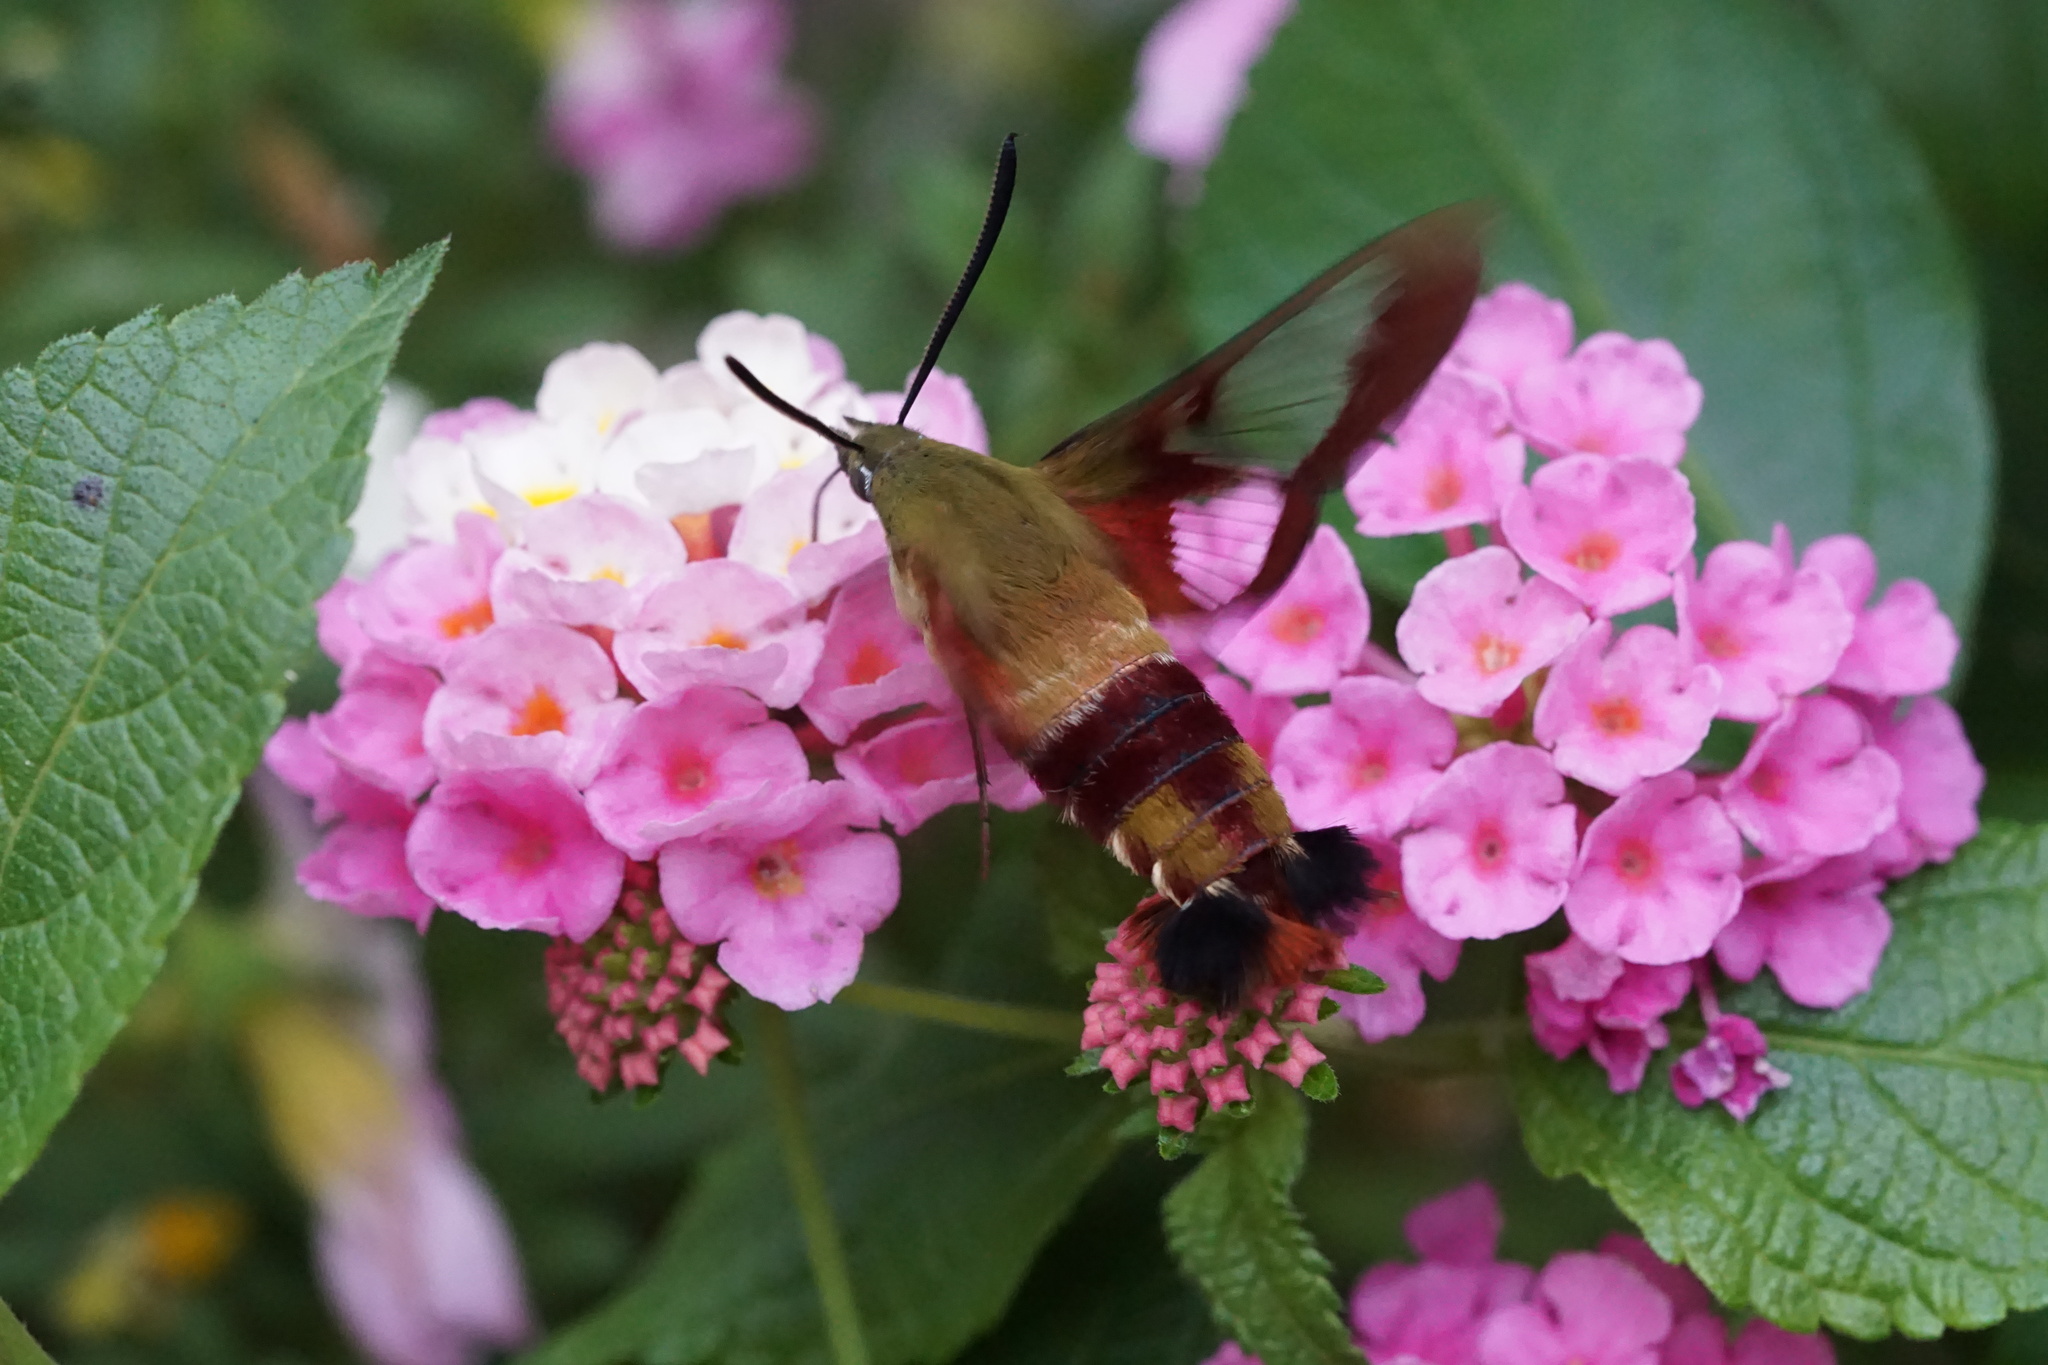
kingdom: Animalia
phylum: Arthropoda
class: Insecta
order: Lepidoptera
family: Sphingidae
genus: Hemaris
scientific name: Hemaris thysbe
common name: Common clear-wing
